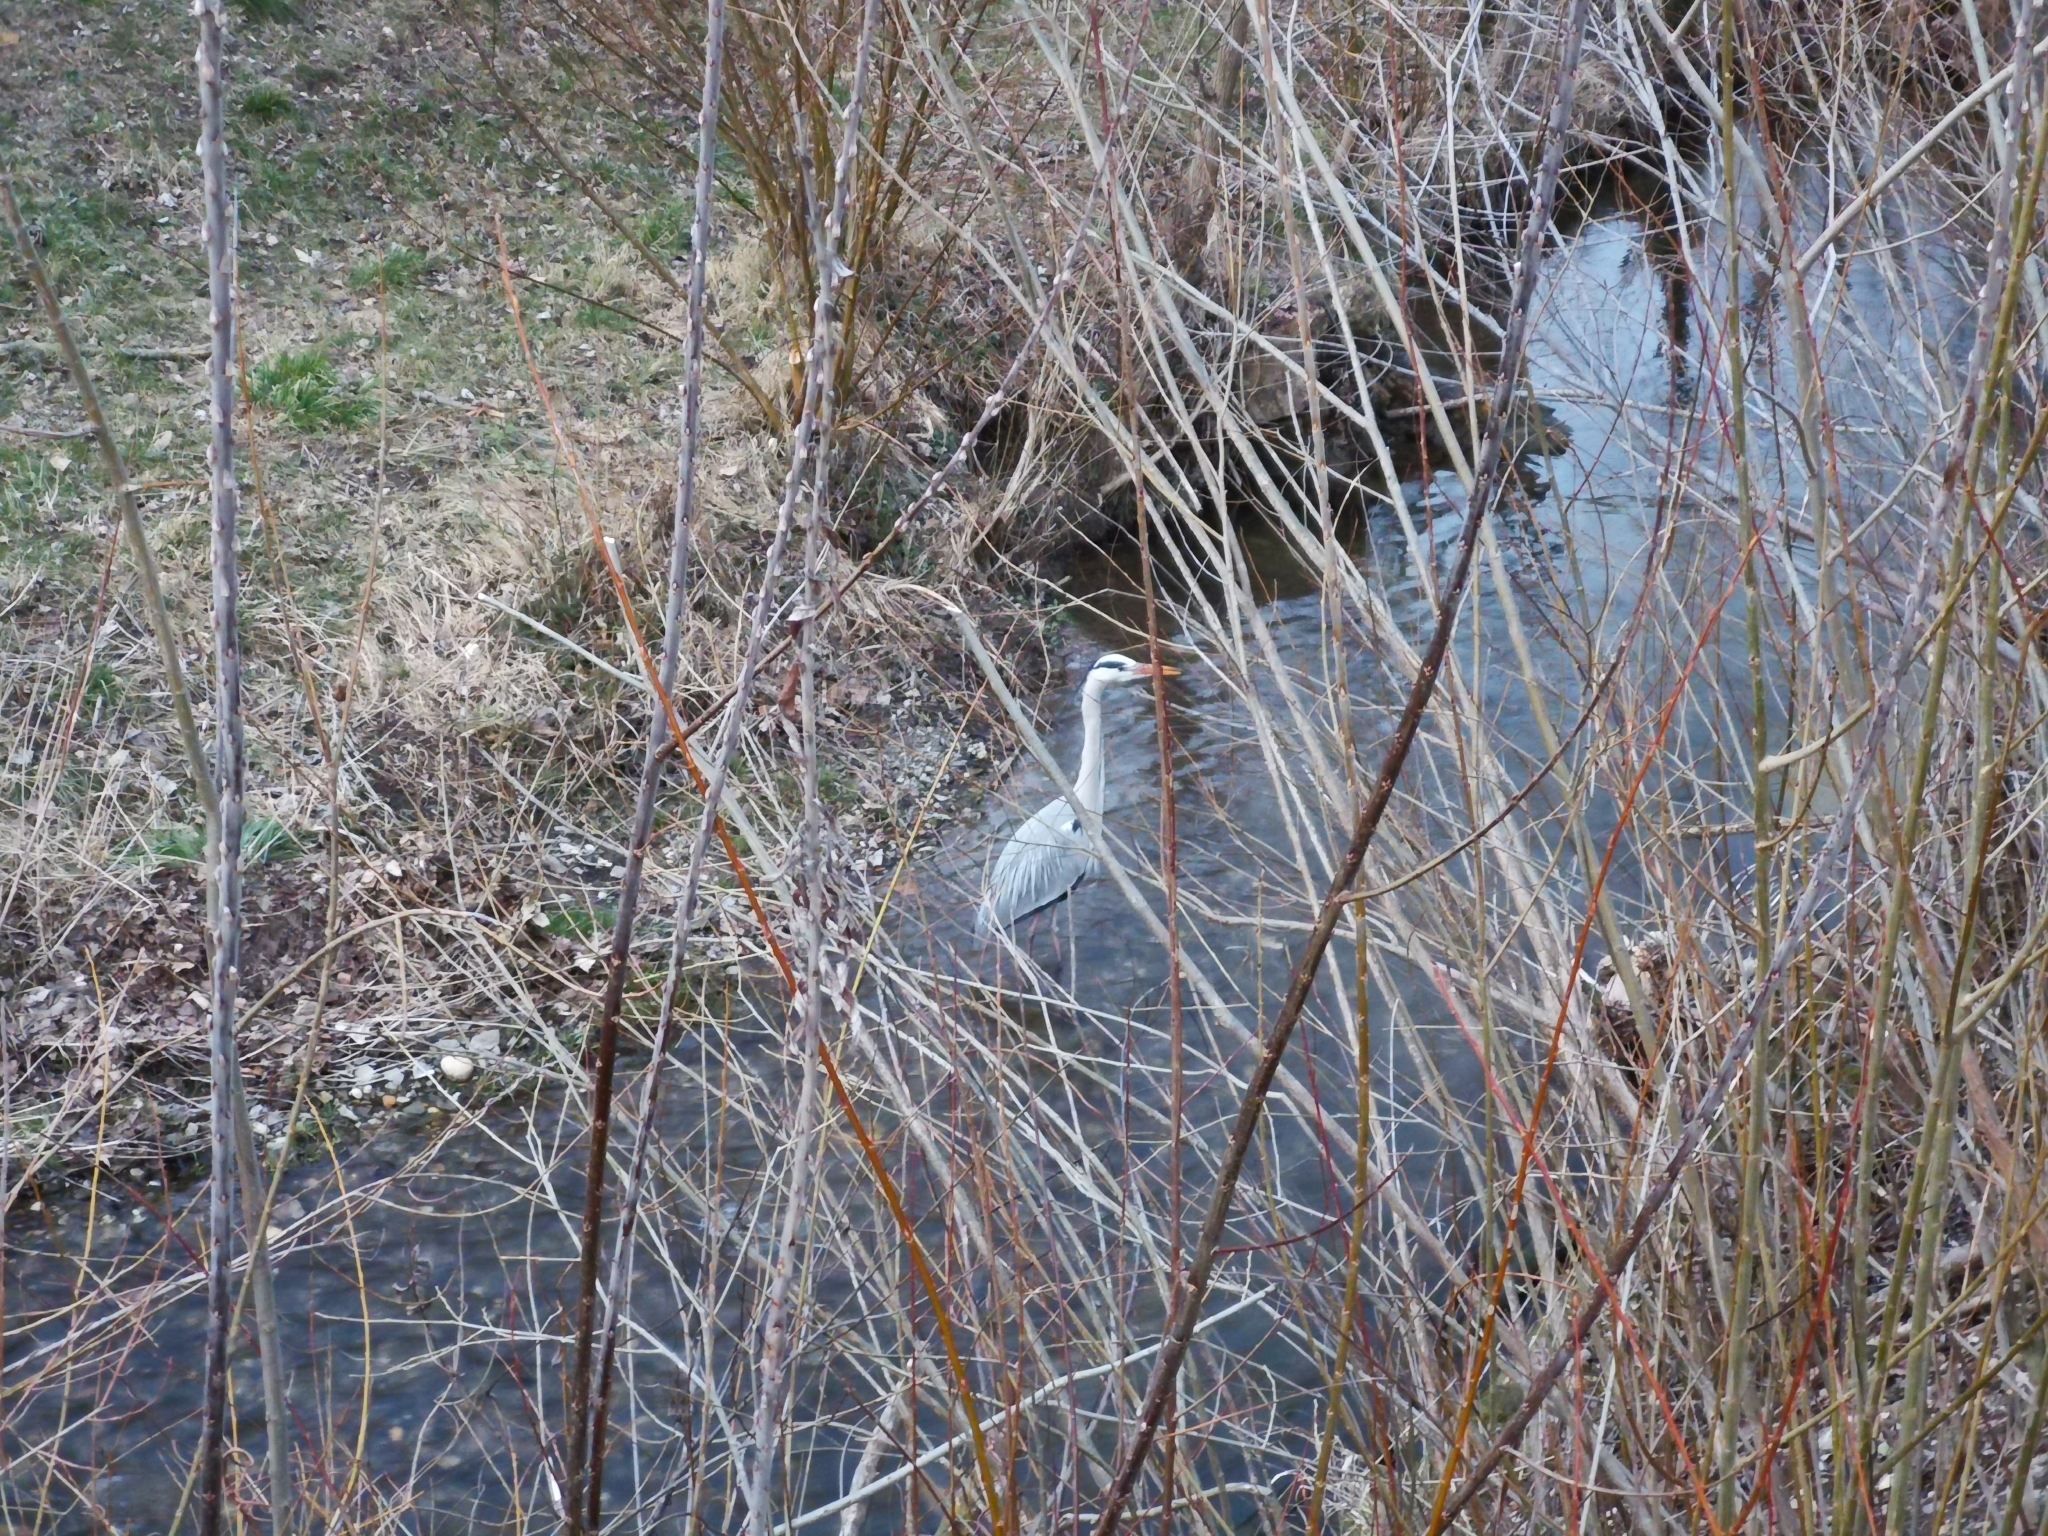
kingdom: Animalia
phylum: Chordata
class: Aves
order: Pelecaniformes
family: Ardeidae
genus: Ardea
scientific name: Ardea cinerea
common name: Grey heron
